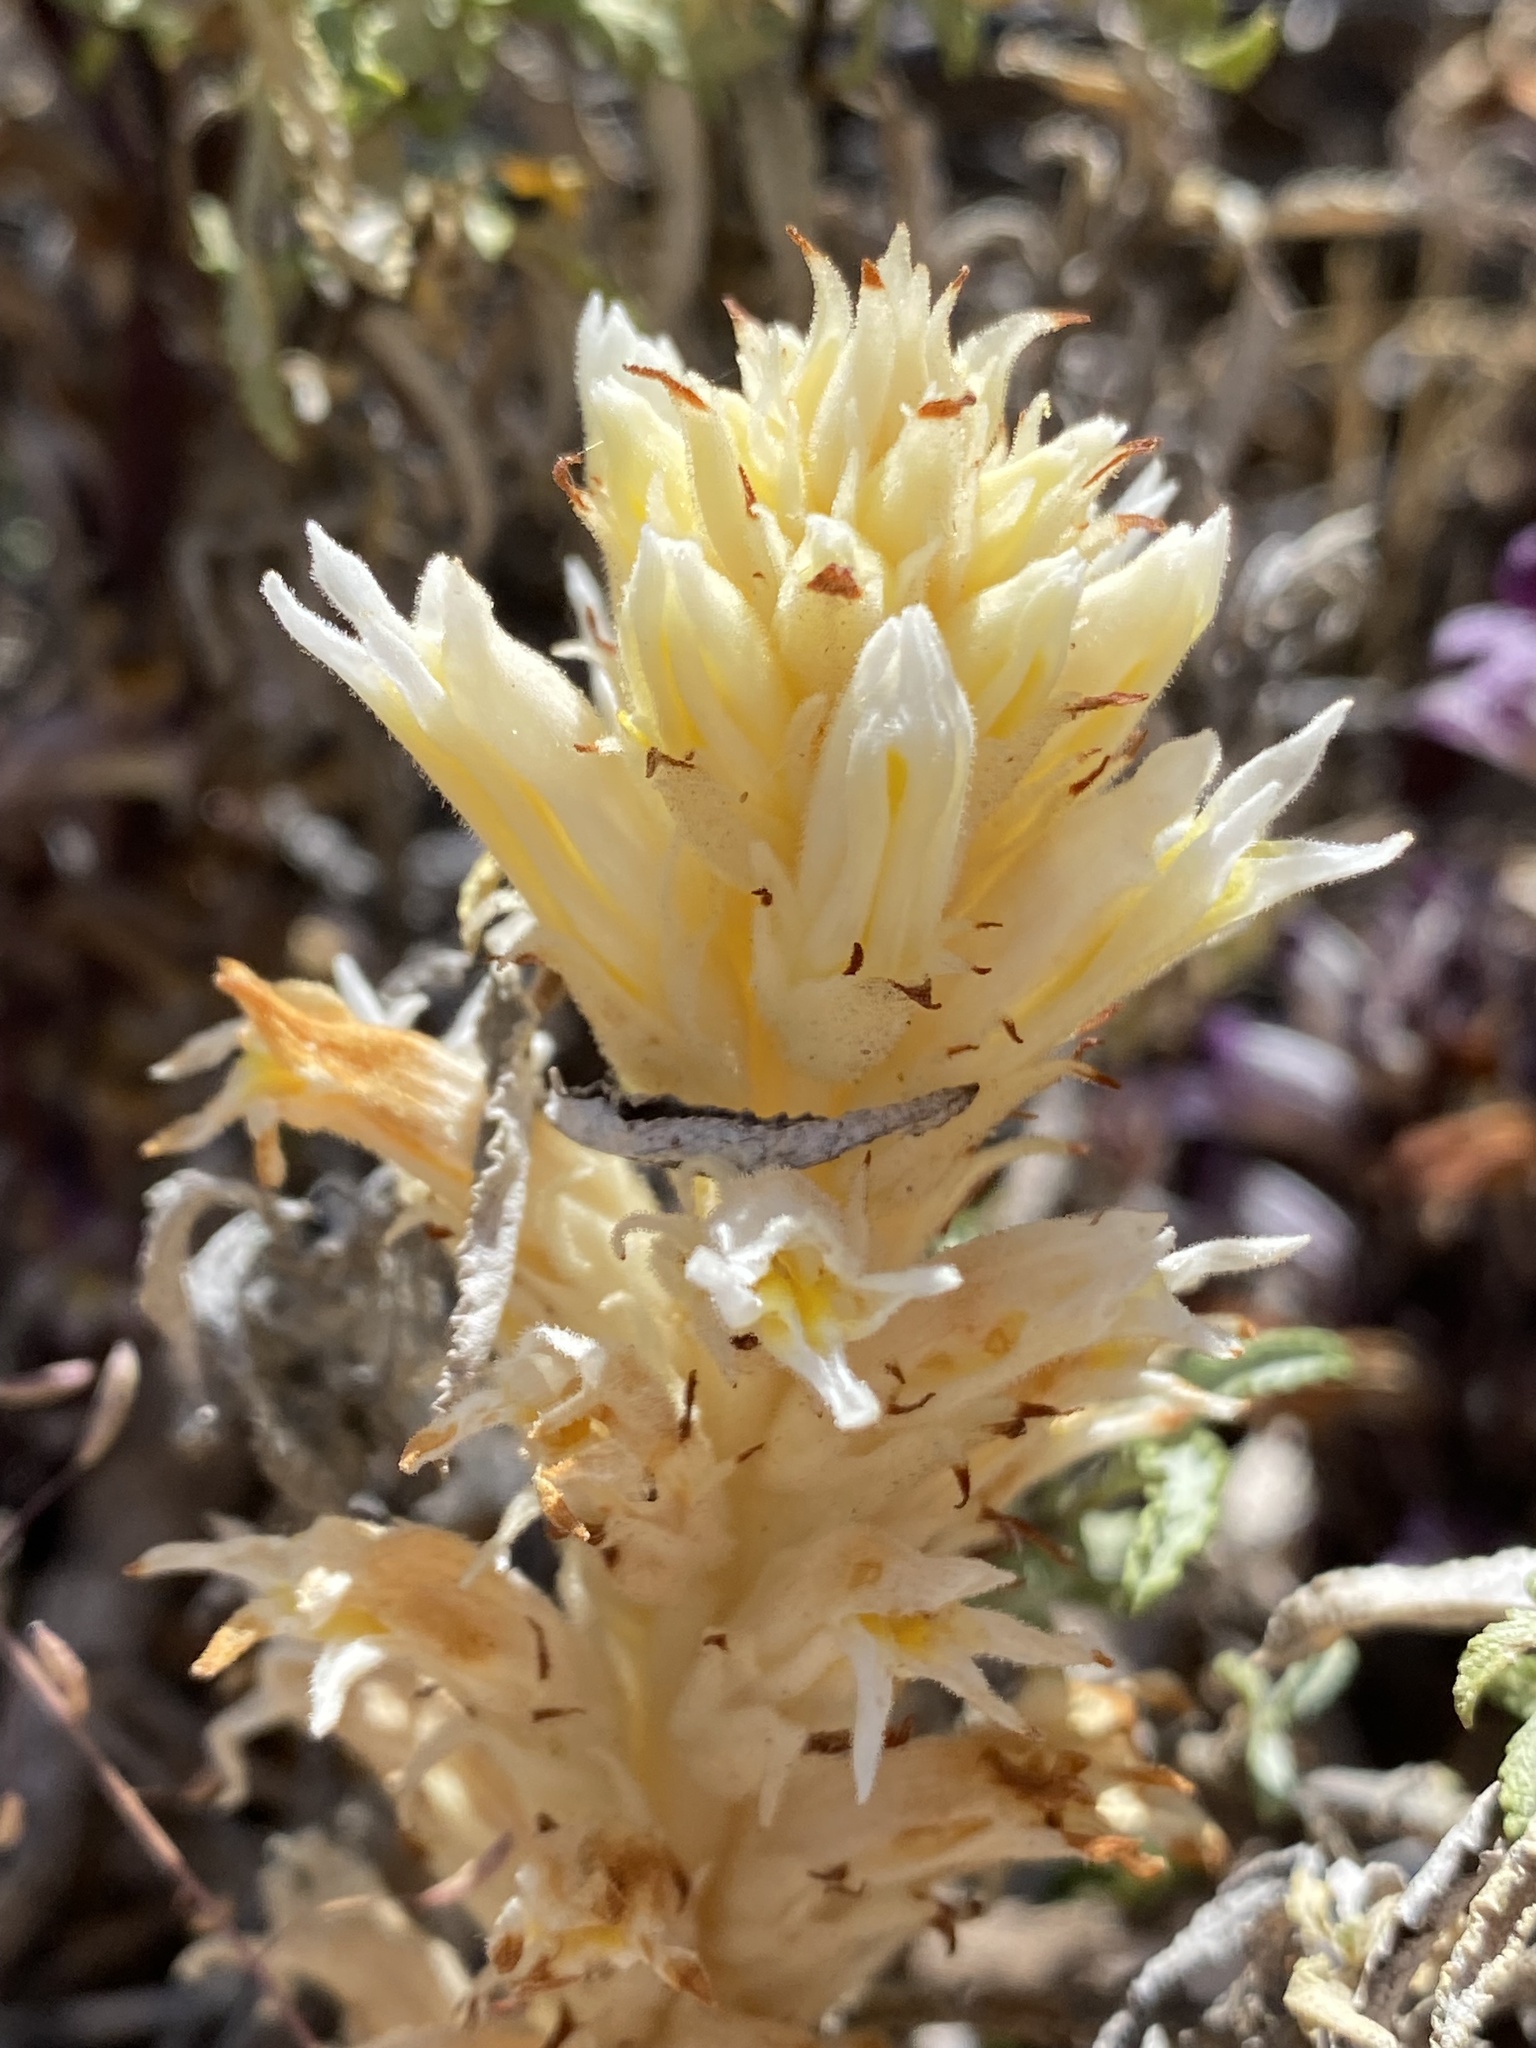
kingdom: Plantae
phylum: Tracheophyta
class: Magnoliopsida
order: Lamiales
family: Orobanchaceae
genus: Aphyllon
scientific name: Aphyllon cooperi
